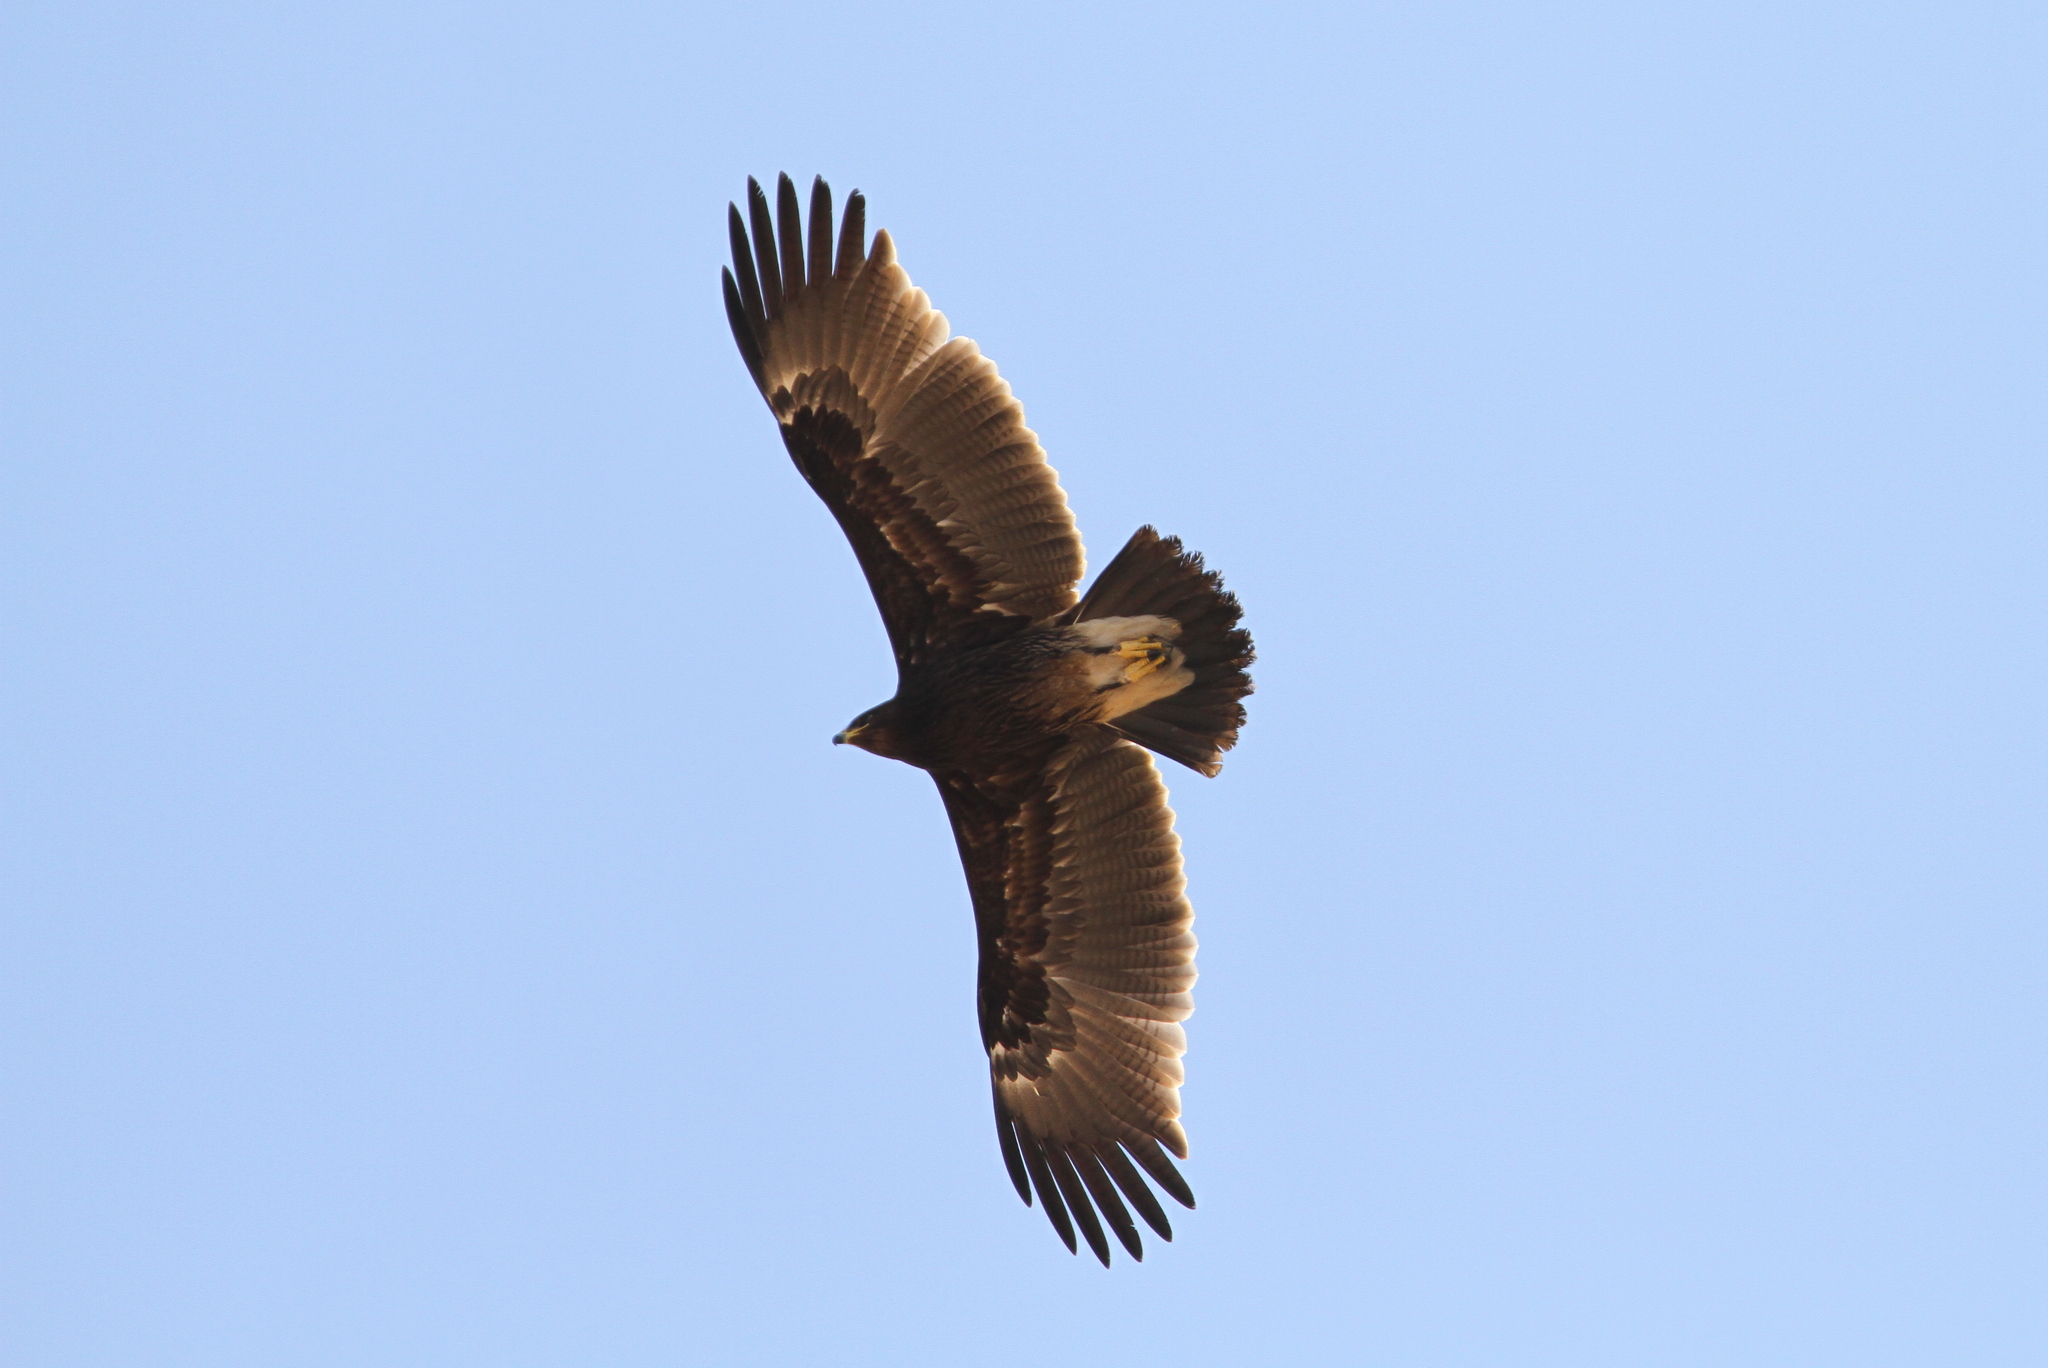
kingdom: Animalia
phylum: Chordata
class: Aves
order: Accipitriformes
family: Accipitridae
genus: Aquila
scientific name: Aquila clanga
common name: Greater spotted eagle
